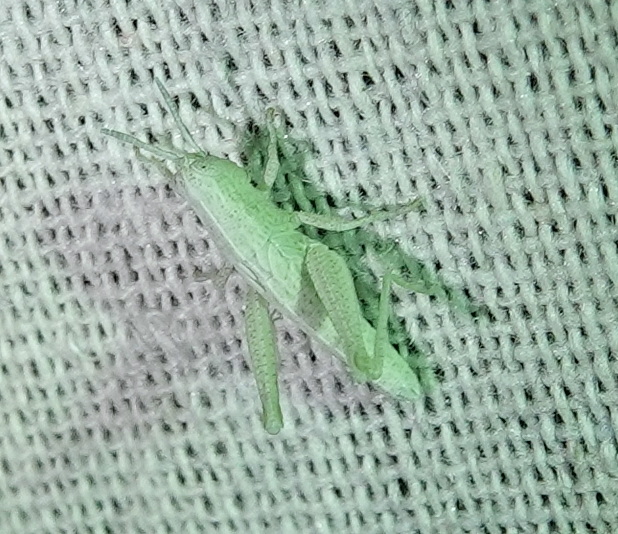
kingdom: Animalia
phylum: Arthropoda
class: Insecta
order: Orthoptera
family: Acrididae
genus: Hypochlora
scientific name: Hypochlora alba
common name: Cudweed grasshopper
